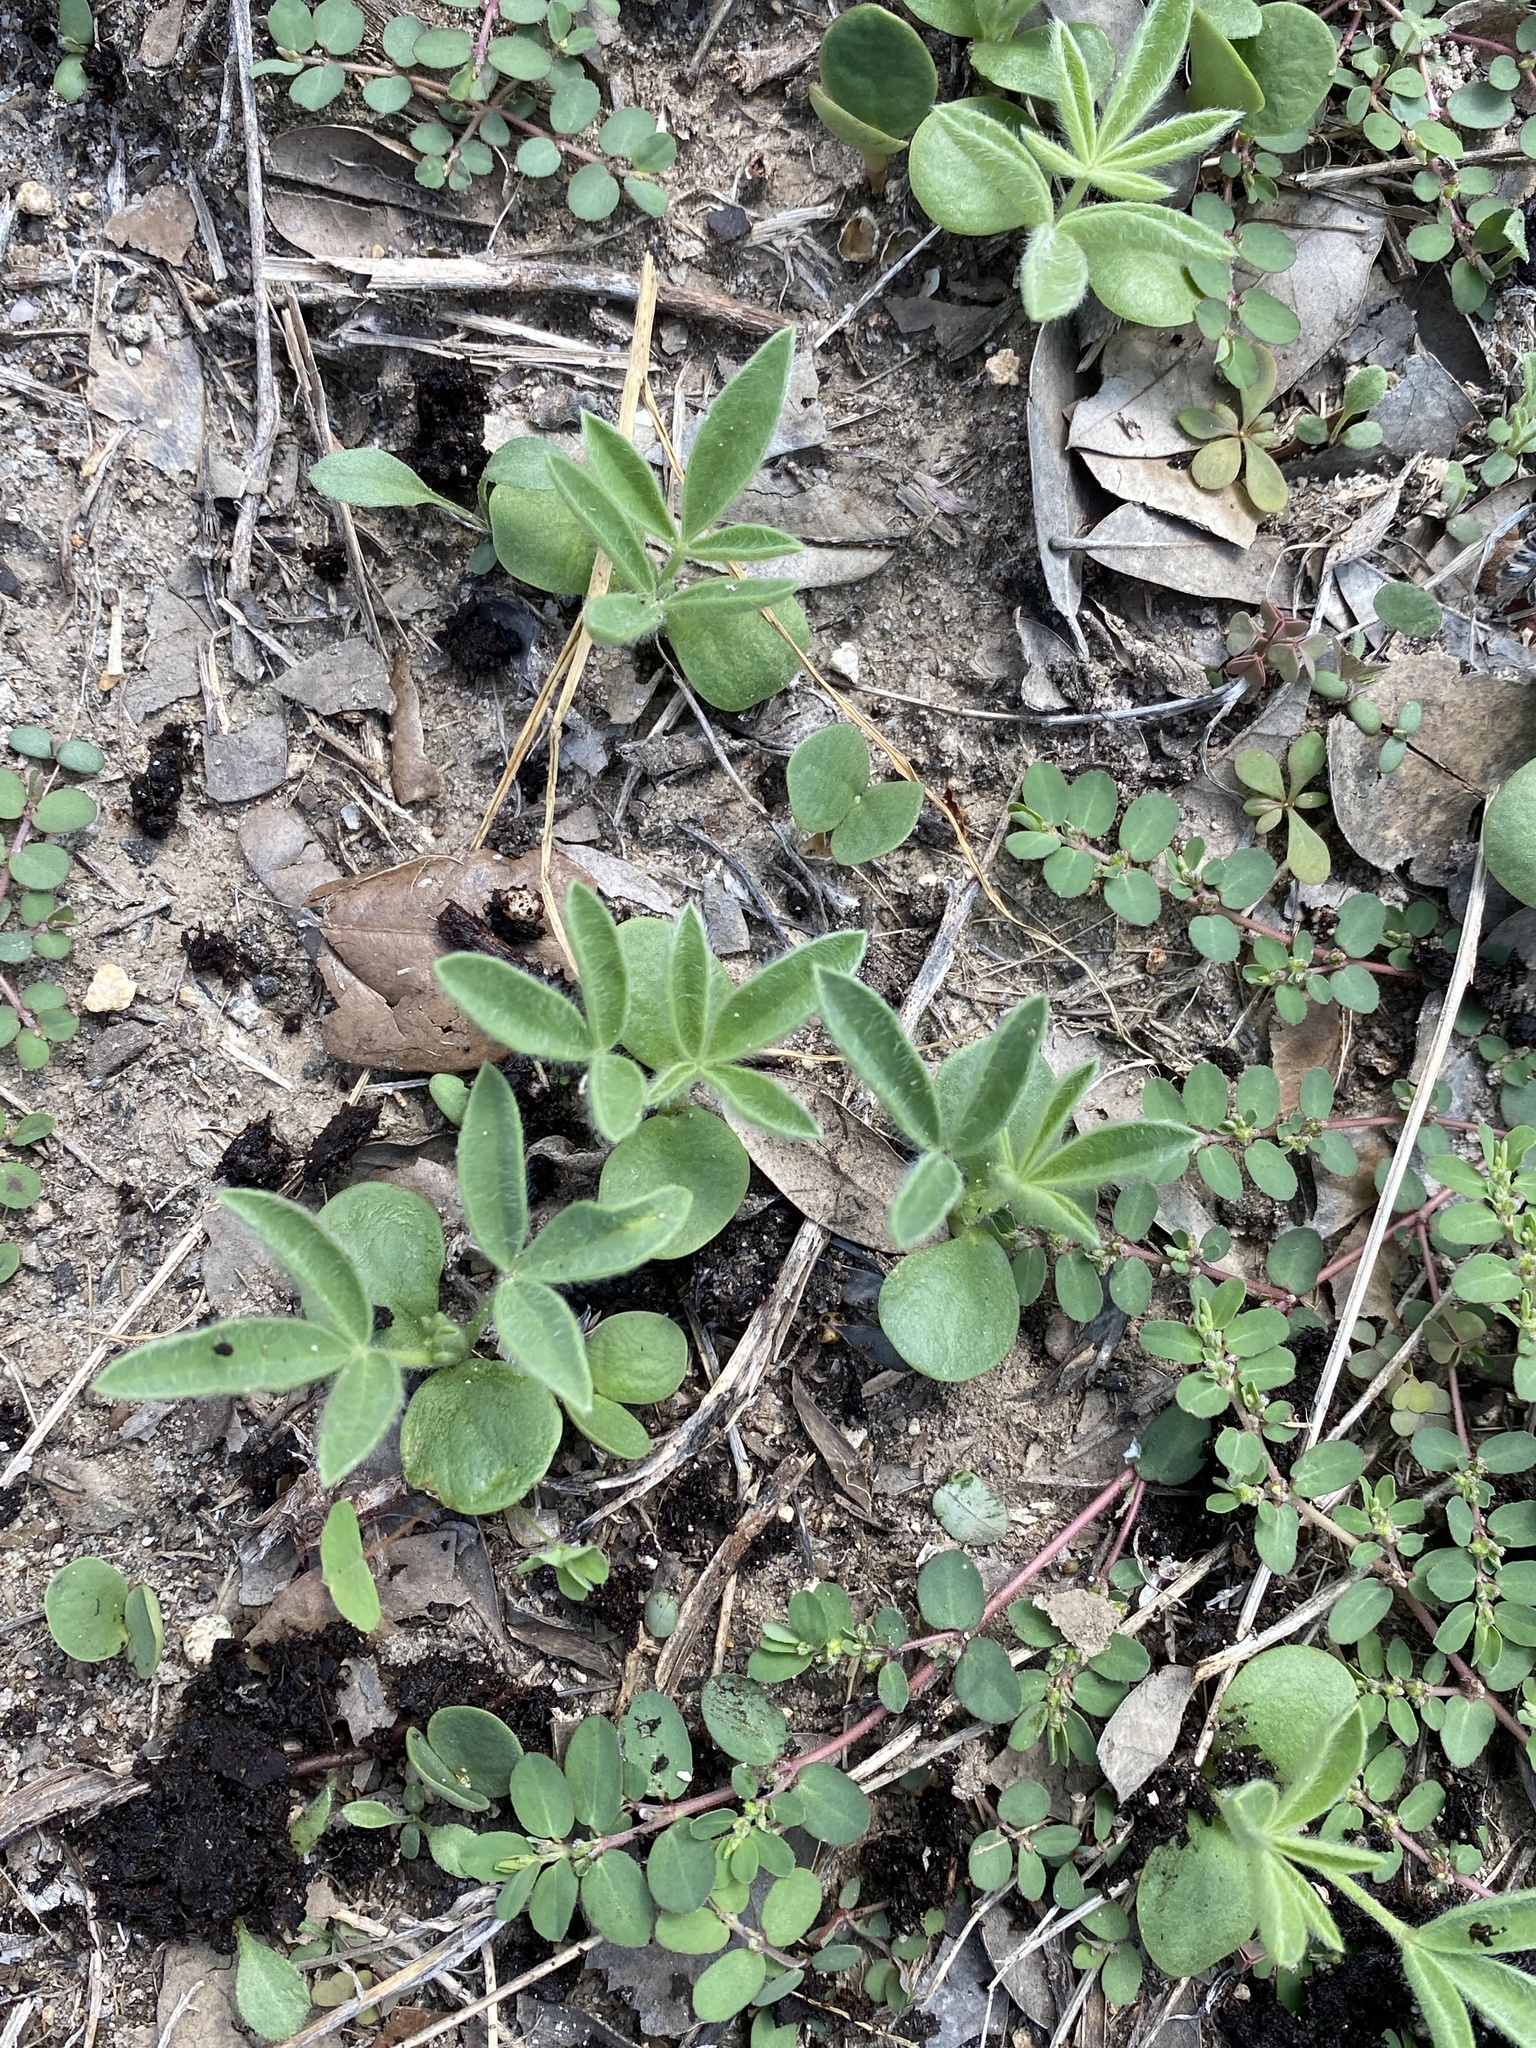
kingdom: Plantae
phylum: Tracheophyta
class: Magnoliopsida
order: Fabales
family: Fabaceae
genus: Lupinus
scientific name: Lupinus texensis
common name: Texas bluebonnet
